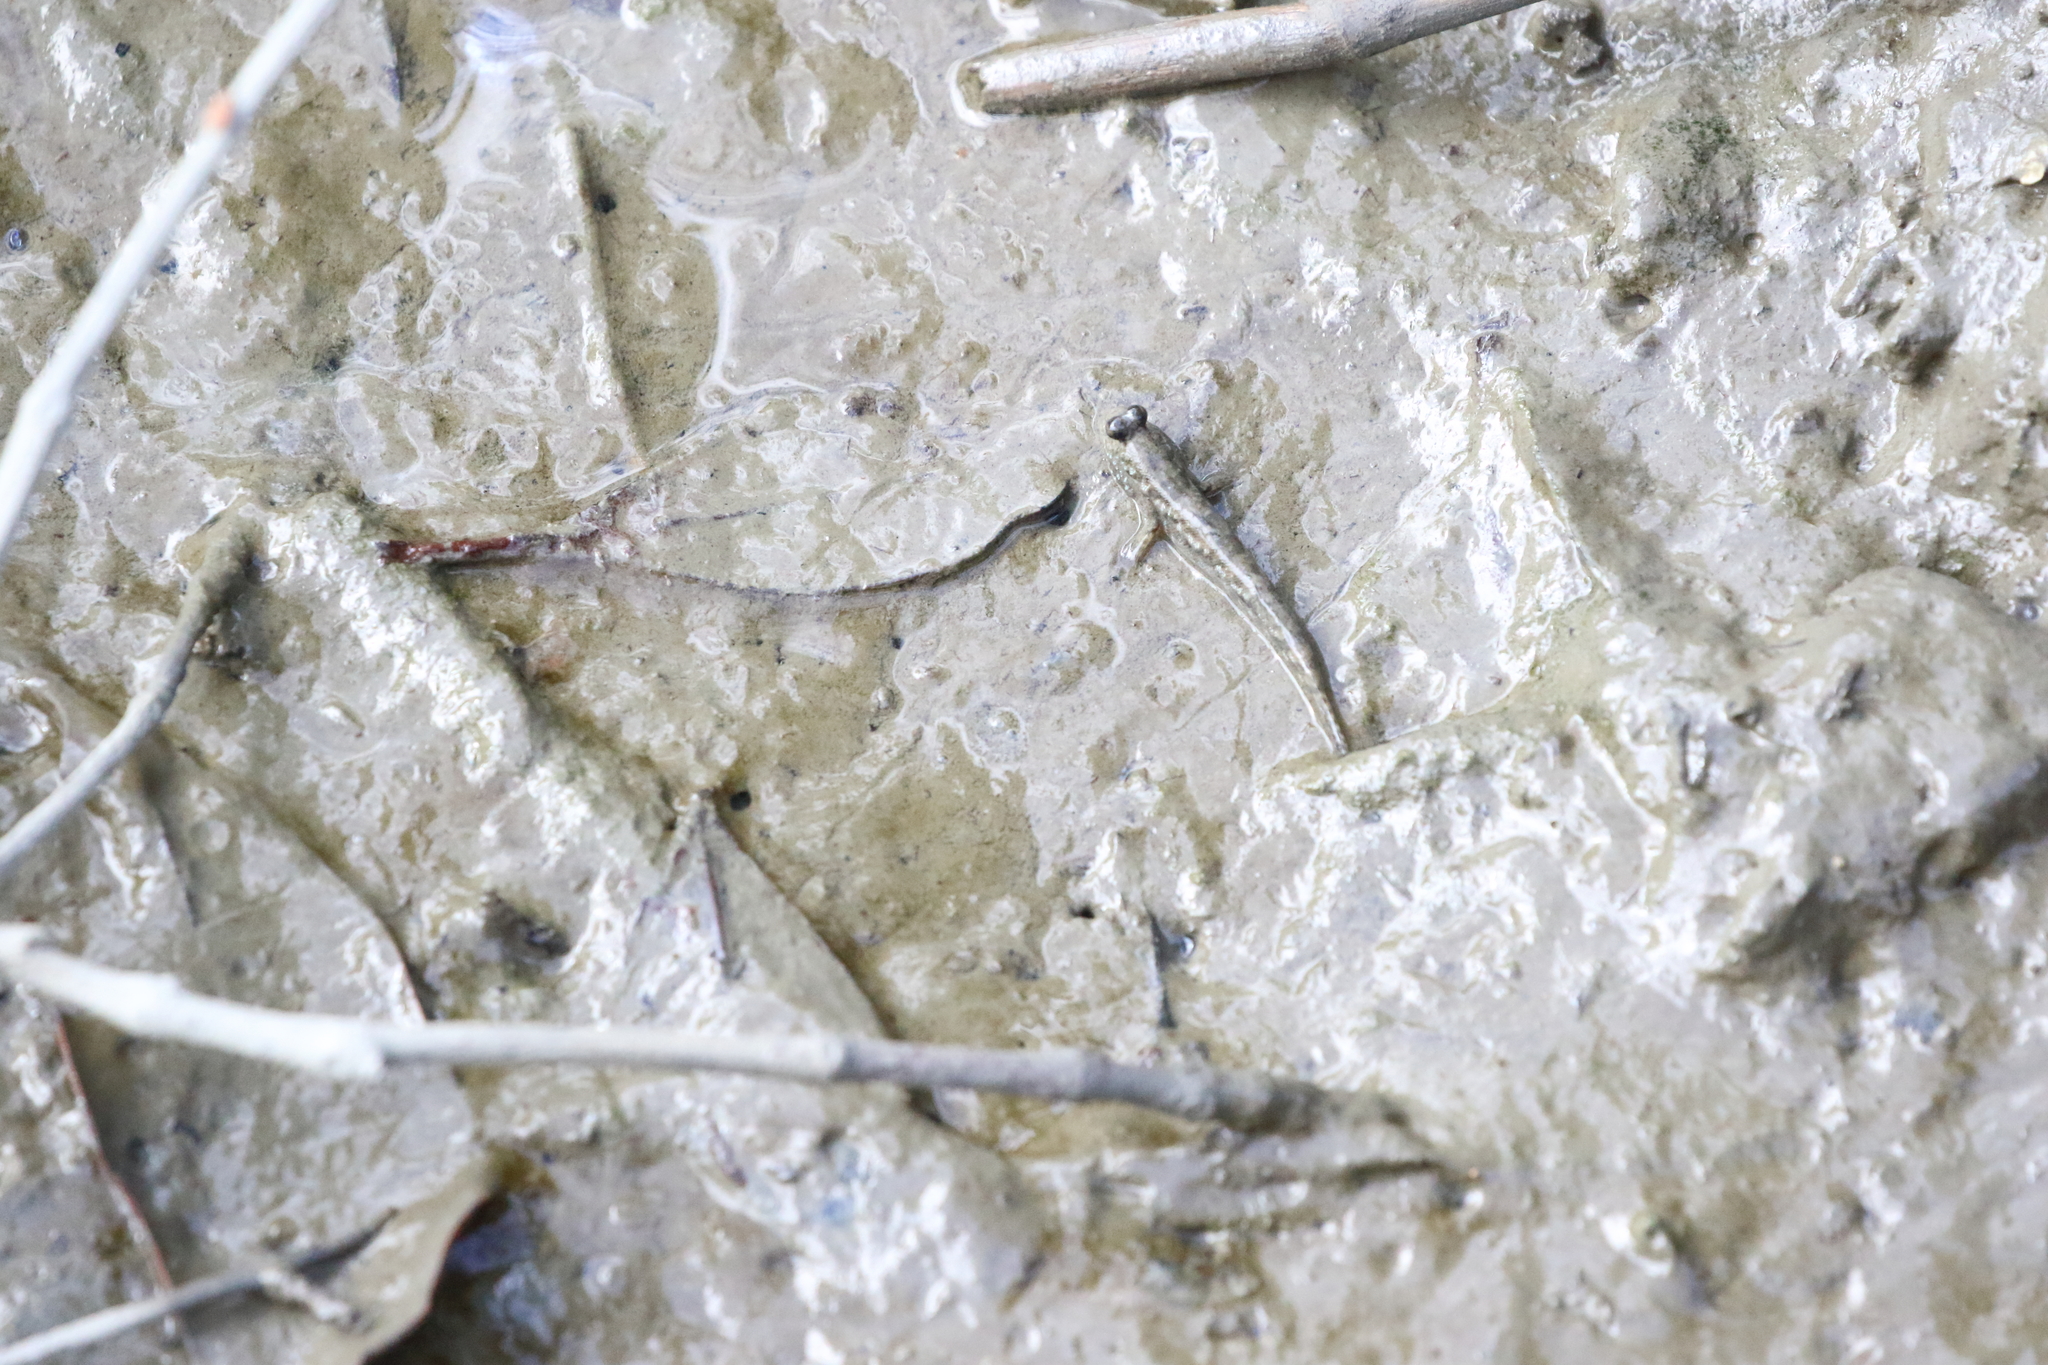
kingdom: Animalia
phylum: Chordata
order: Perciformes
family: Gobiidae
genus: Periophthalmus
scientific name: Periophthalmus
